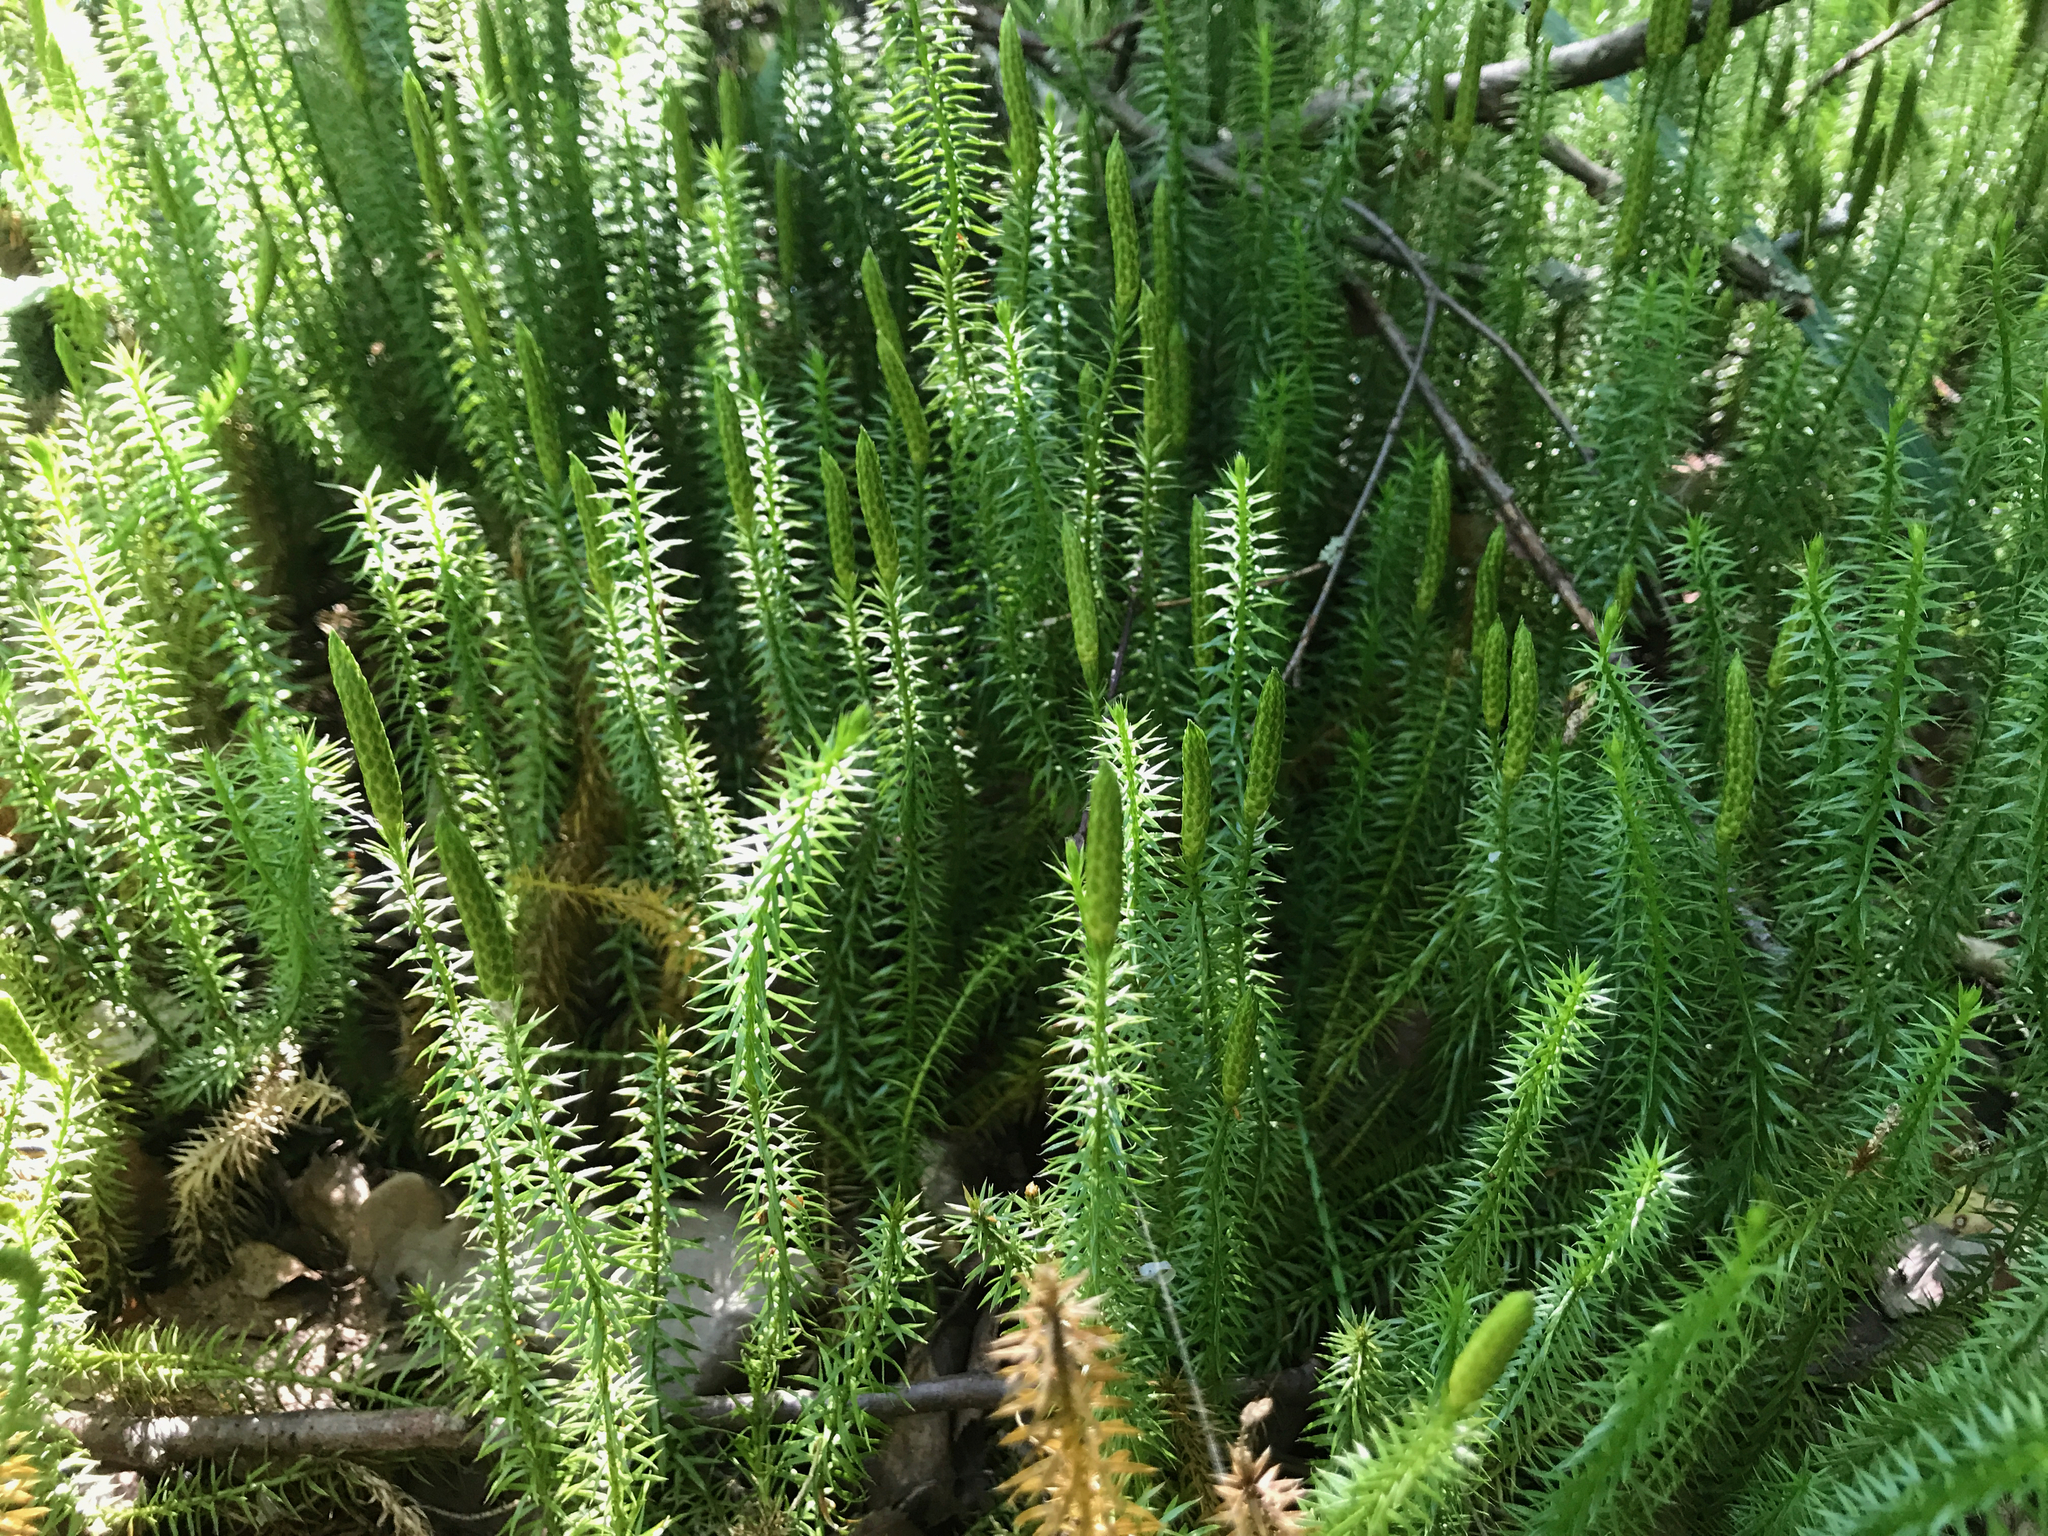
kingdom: Plantae
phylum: Tracheophyta
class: Lycopodiopsida
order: Lycopodiales
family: Lycopodiaceae
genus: Spinulum
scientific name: Spinulum annotinum
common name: Interrupted club-moss
